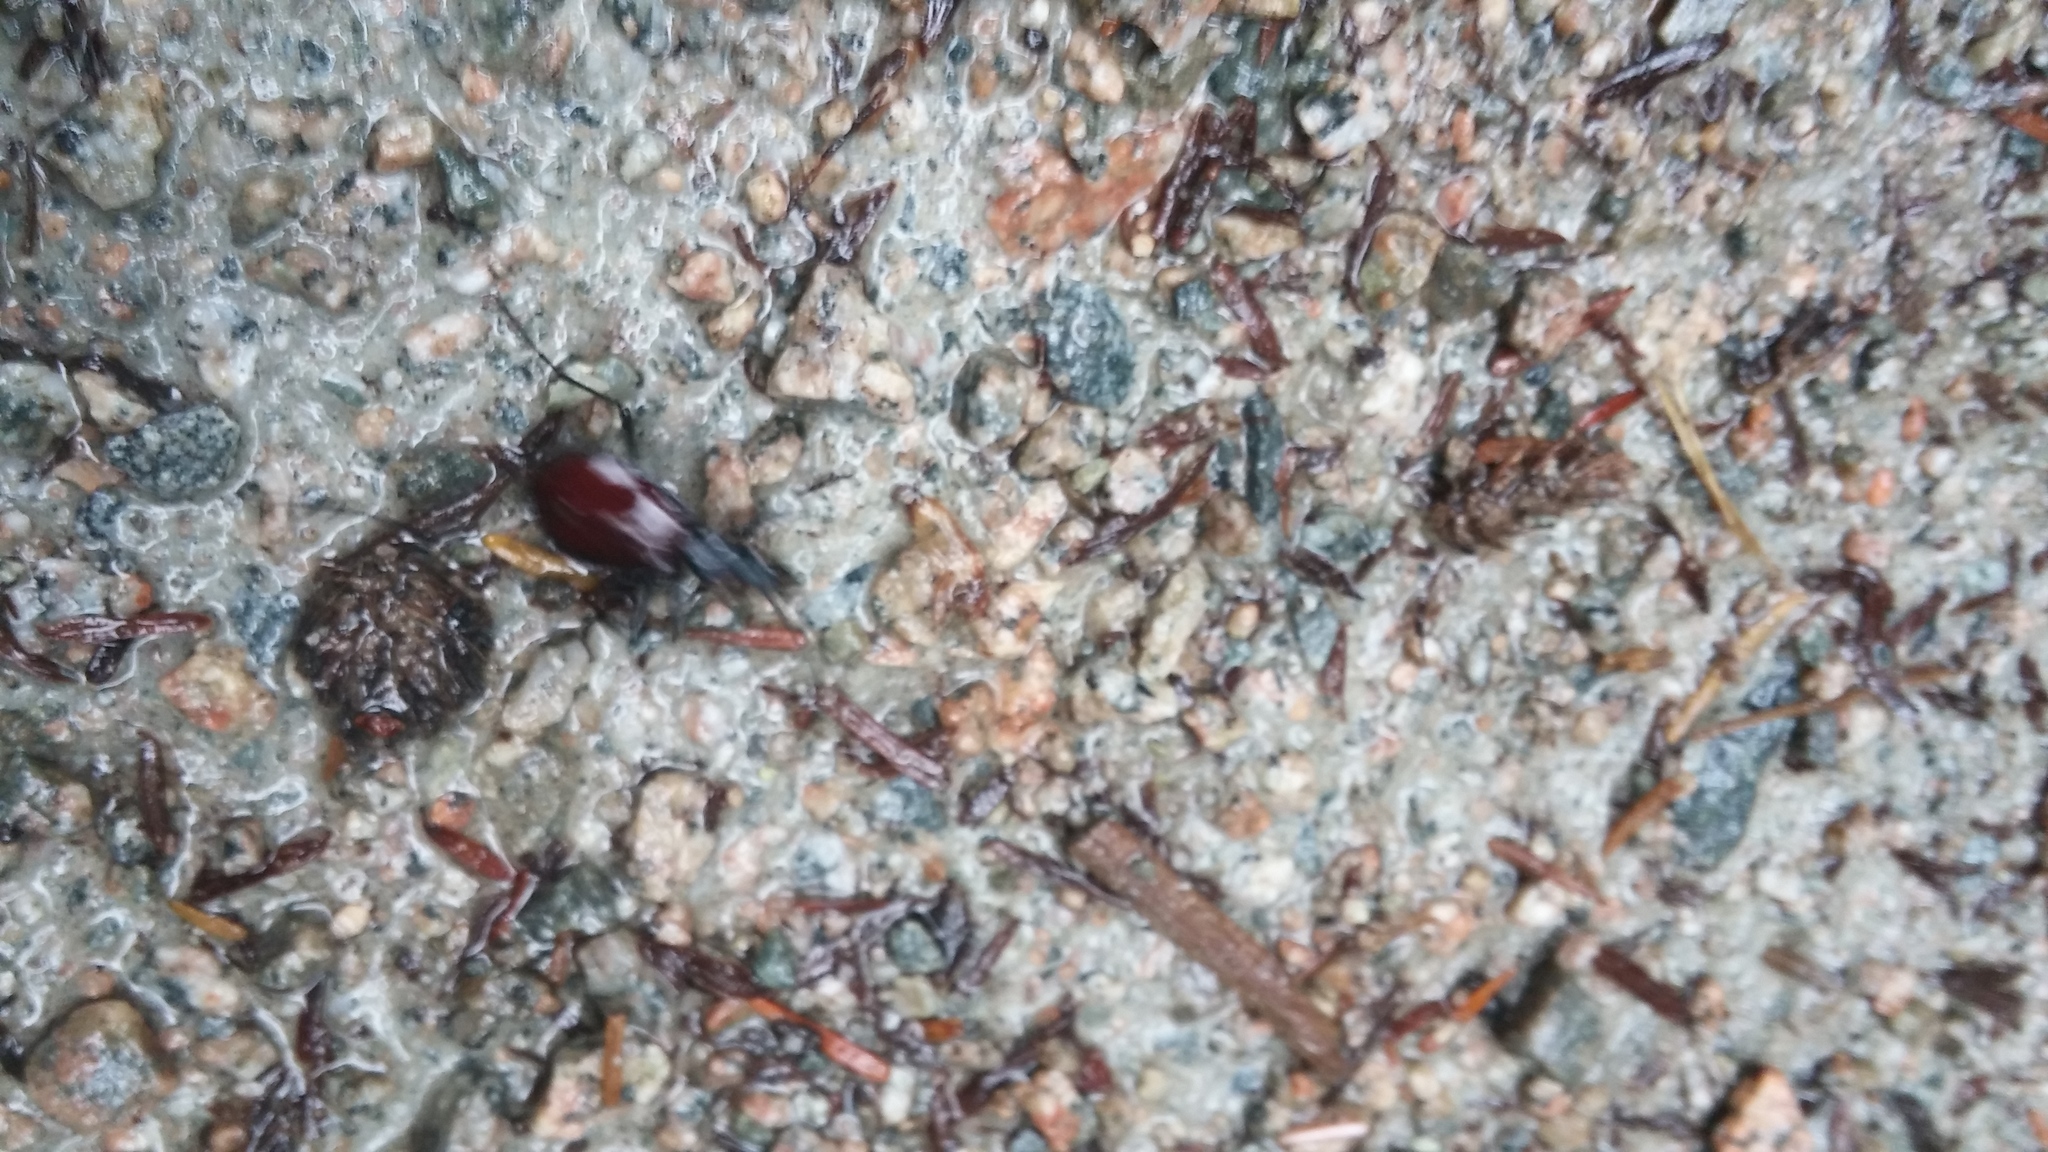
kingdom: Animalia
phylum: Arthropoda
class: Insecta
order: Coleoptera
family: Carabidae
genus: Scaphinotus
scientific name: Scaphinotus angusticollis
